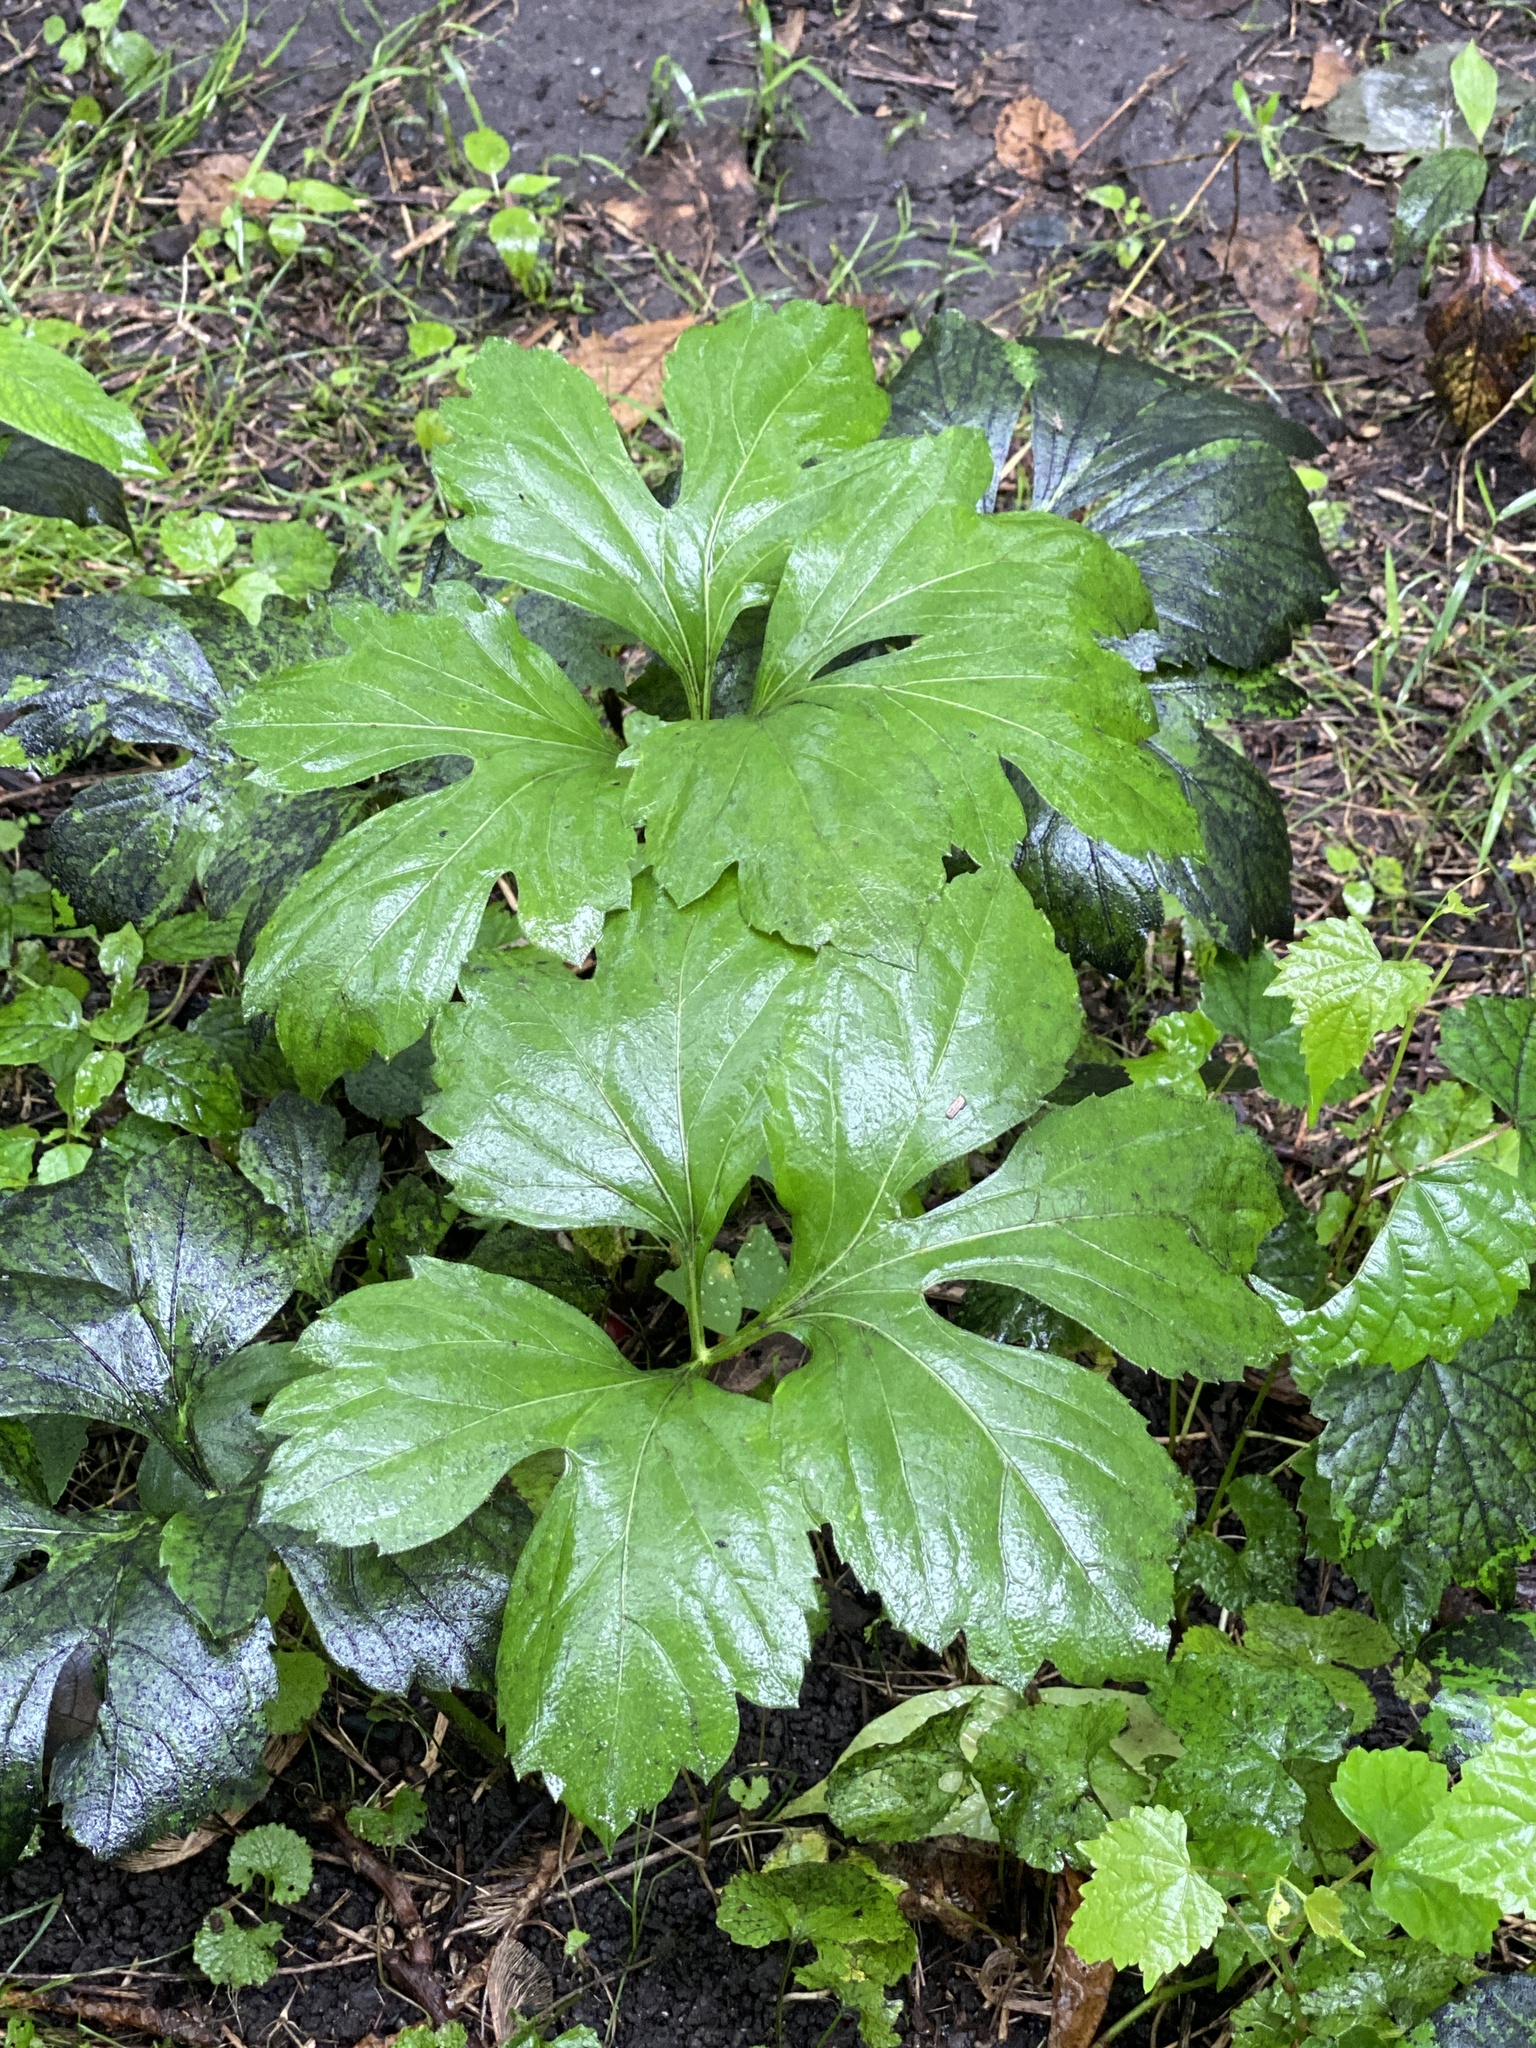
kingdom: Plantae
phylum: Tracheophyta
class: Magnoliopsida
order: Asterales
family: Asteraceae
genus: Rudbeckia
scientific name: Rudbeckia laciniata
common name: Coneflower
